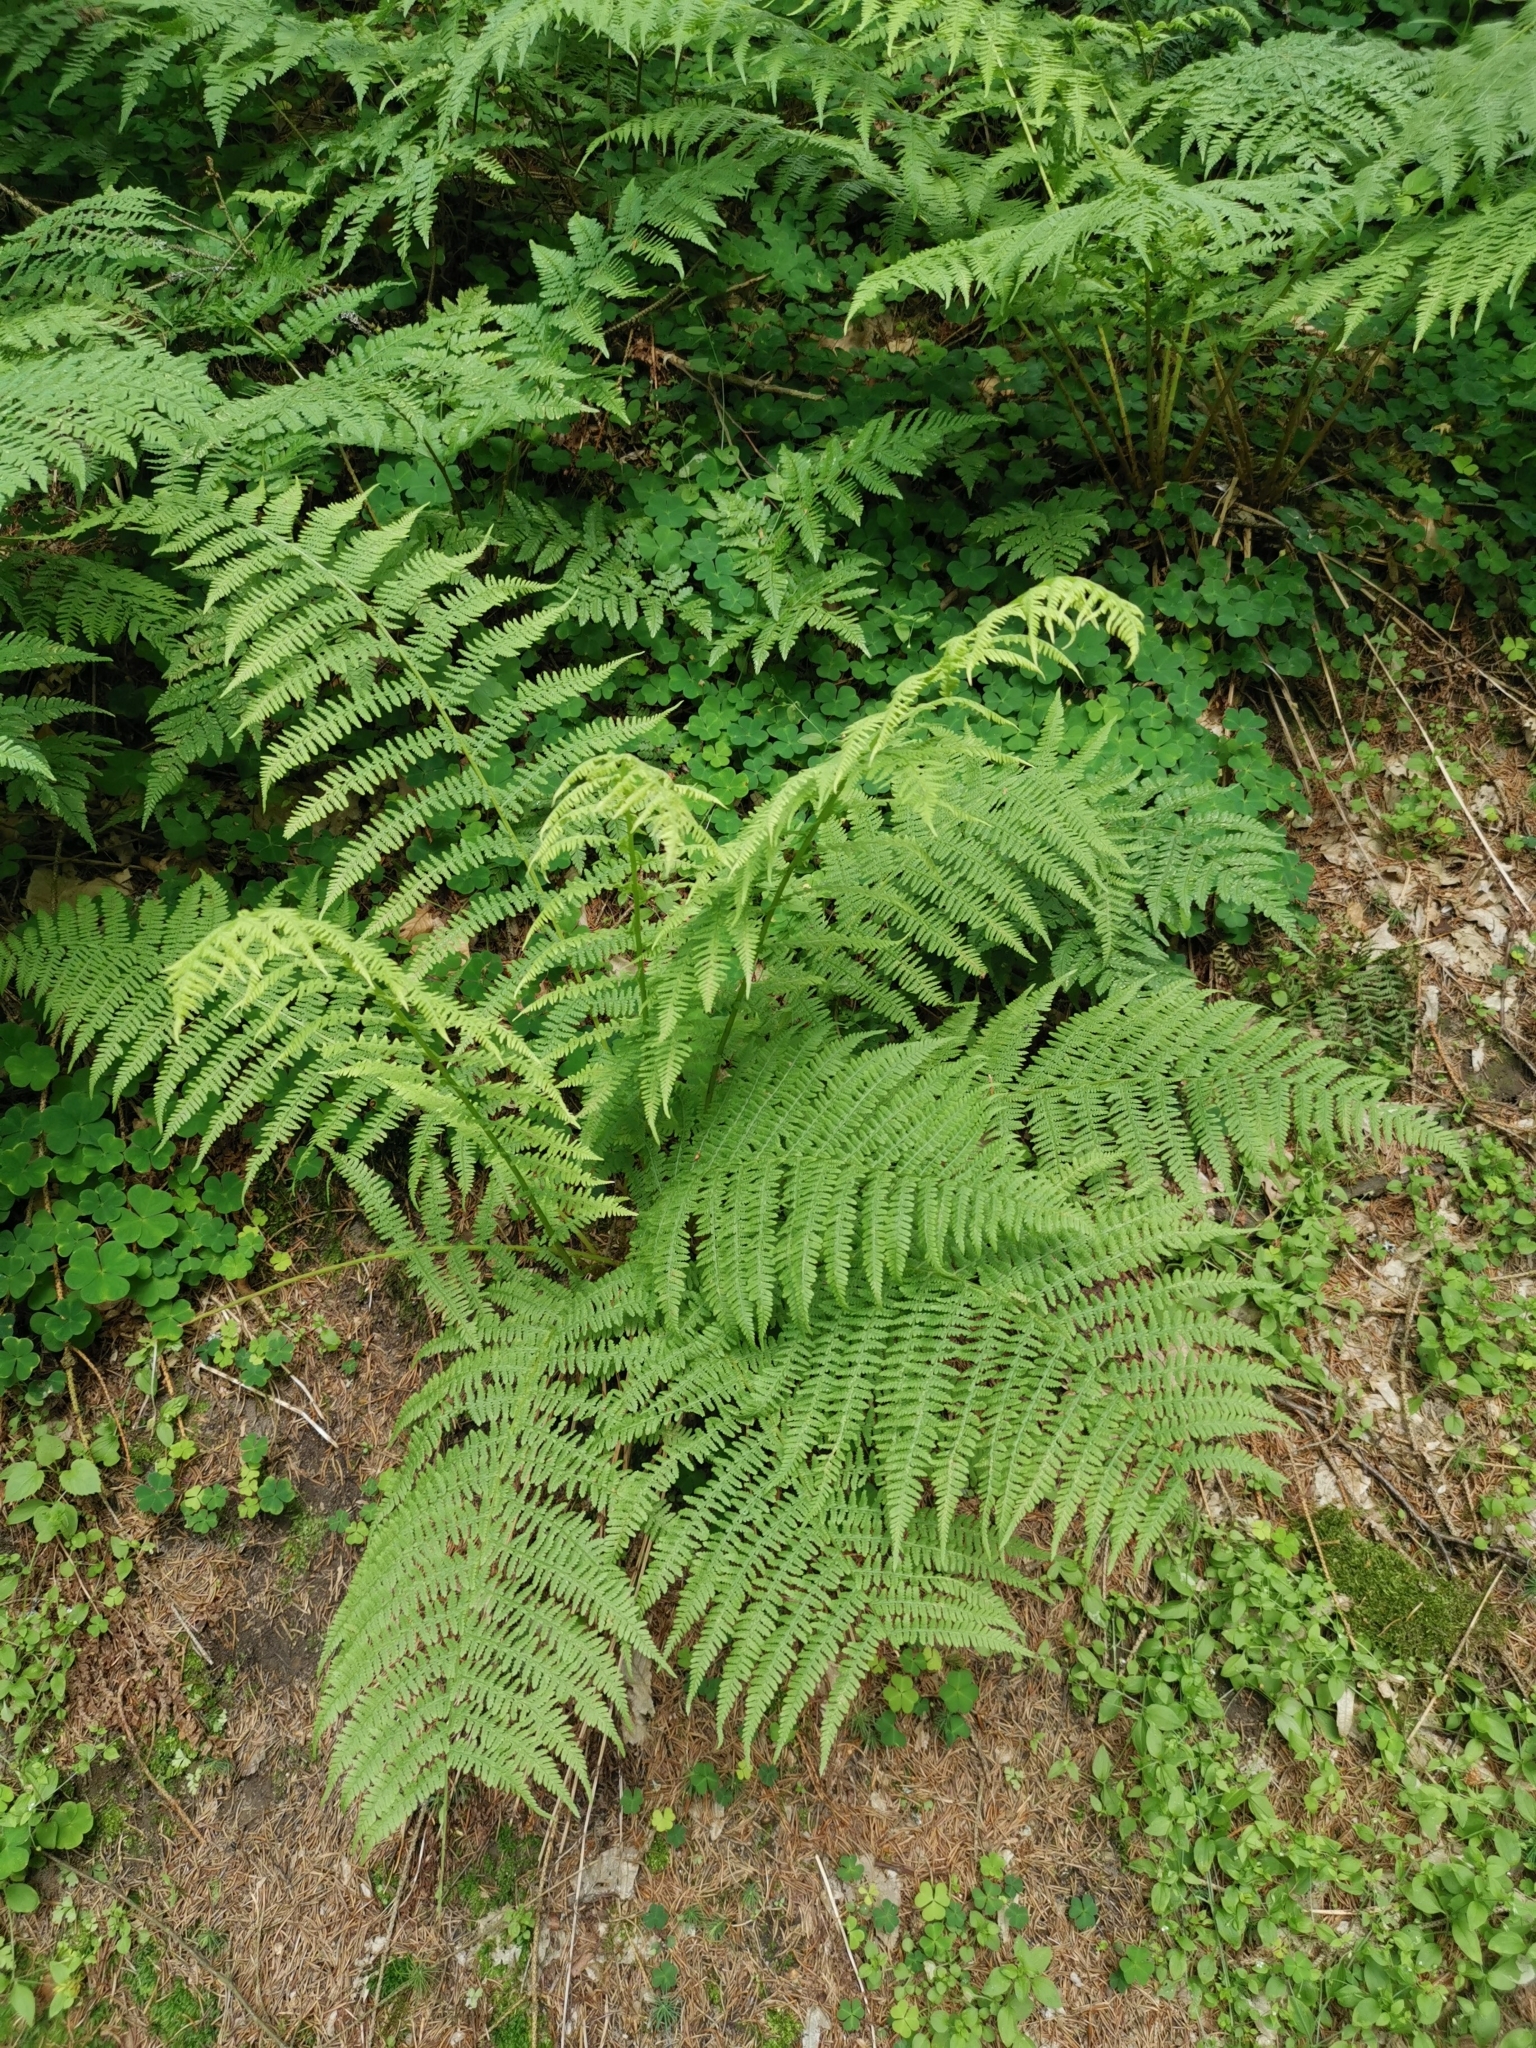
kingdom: Plantae
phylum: Tracheophyta
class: Polypodiopsida
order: Polypodiales
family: Athyriaceae
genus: Athyrium
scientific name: Athyrium filix-femina
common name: Lady fern
